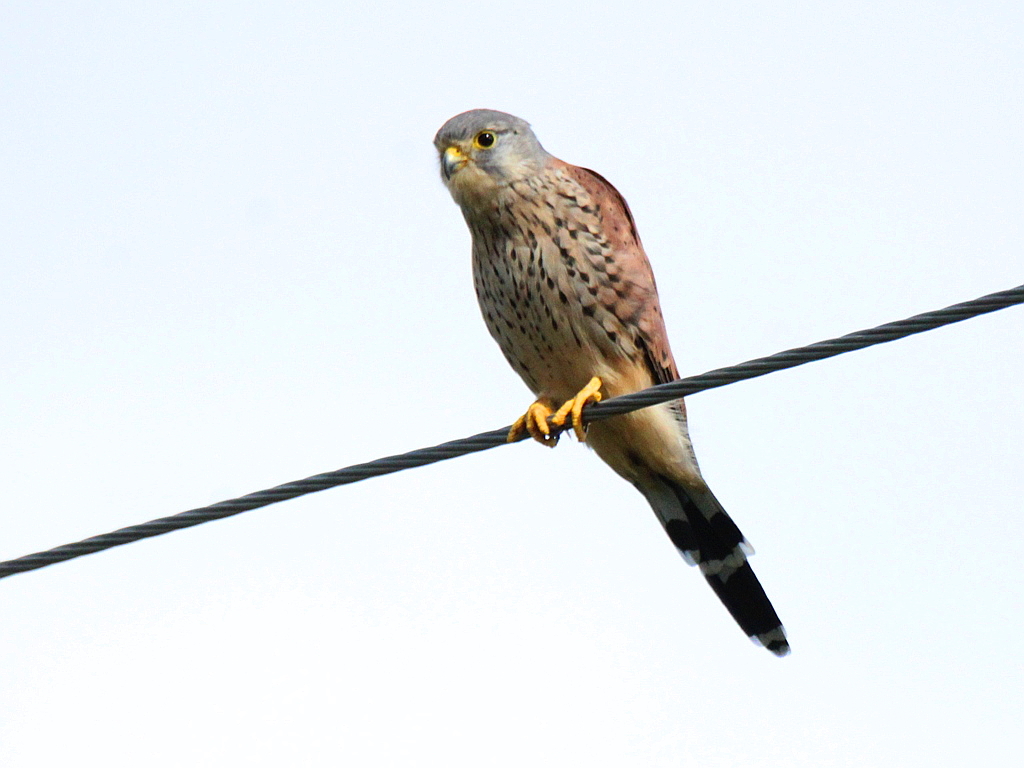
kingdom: Animalia
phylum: Chordata
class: Aves
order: Falconiformes
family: Falconidae
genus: Falco
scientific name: Falco tinnunculus
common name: Common kestrel
